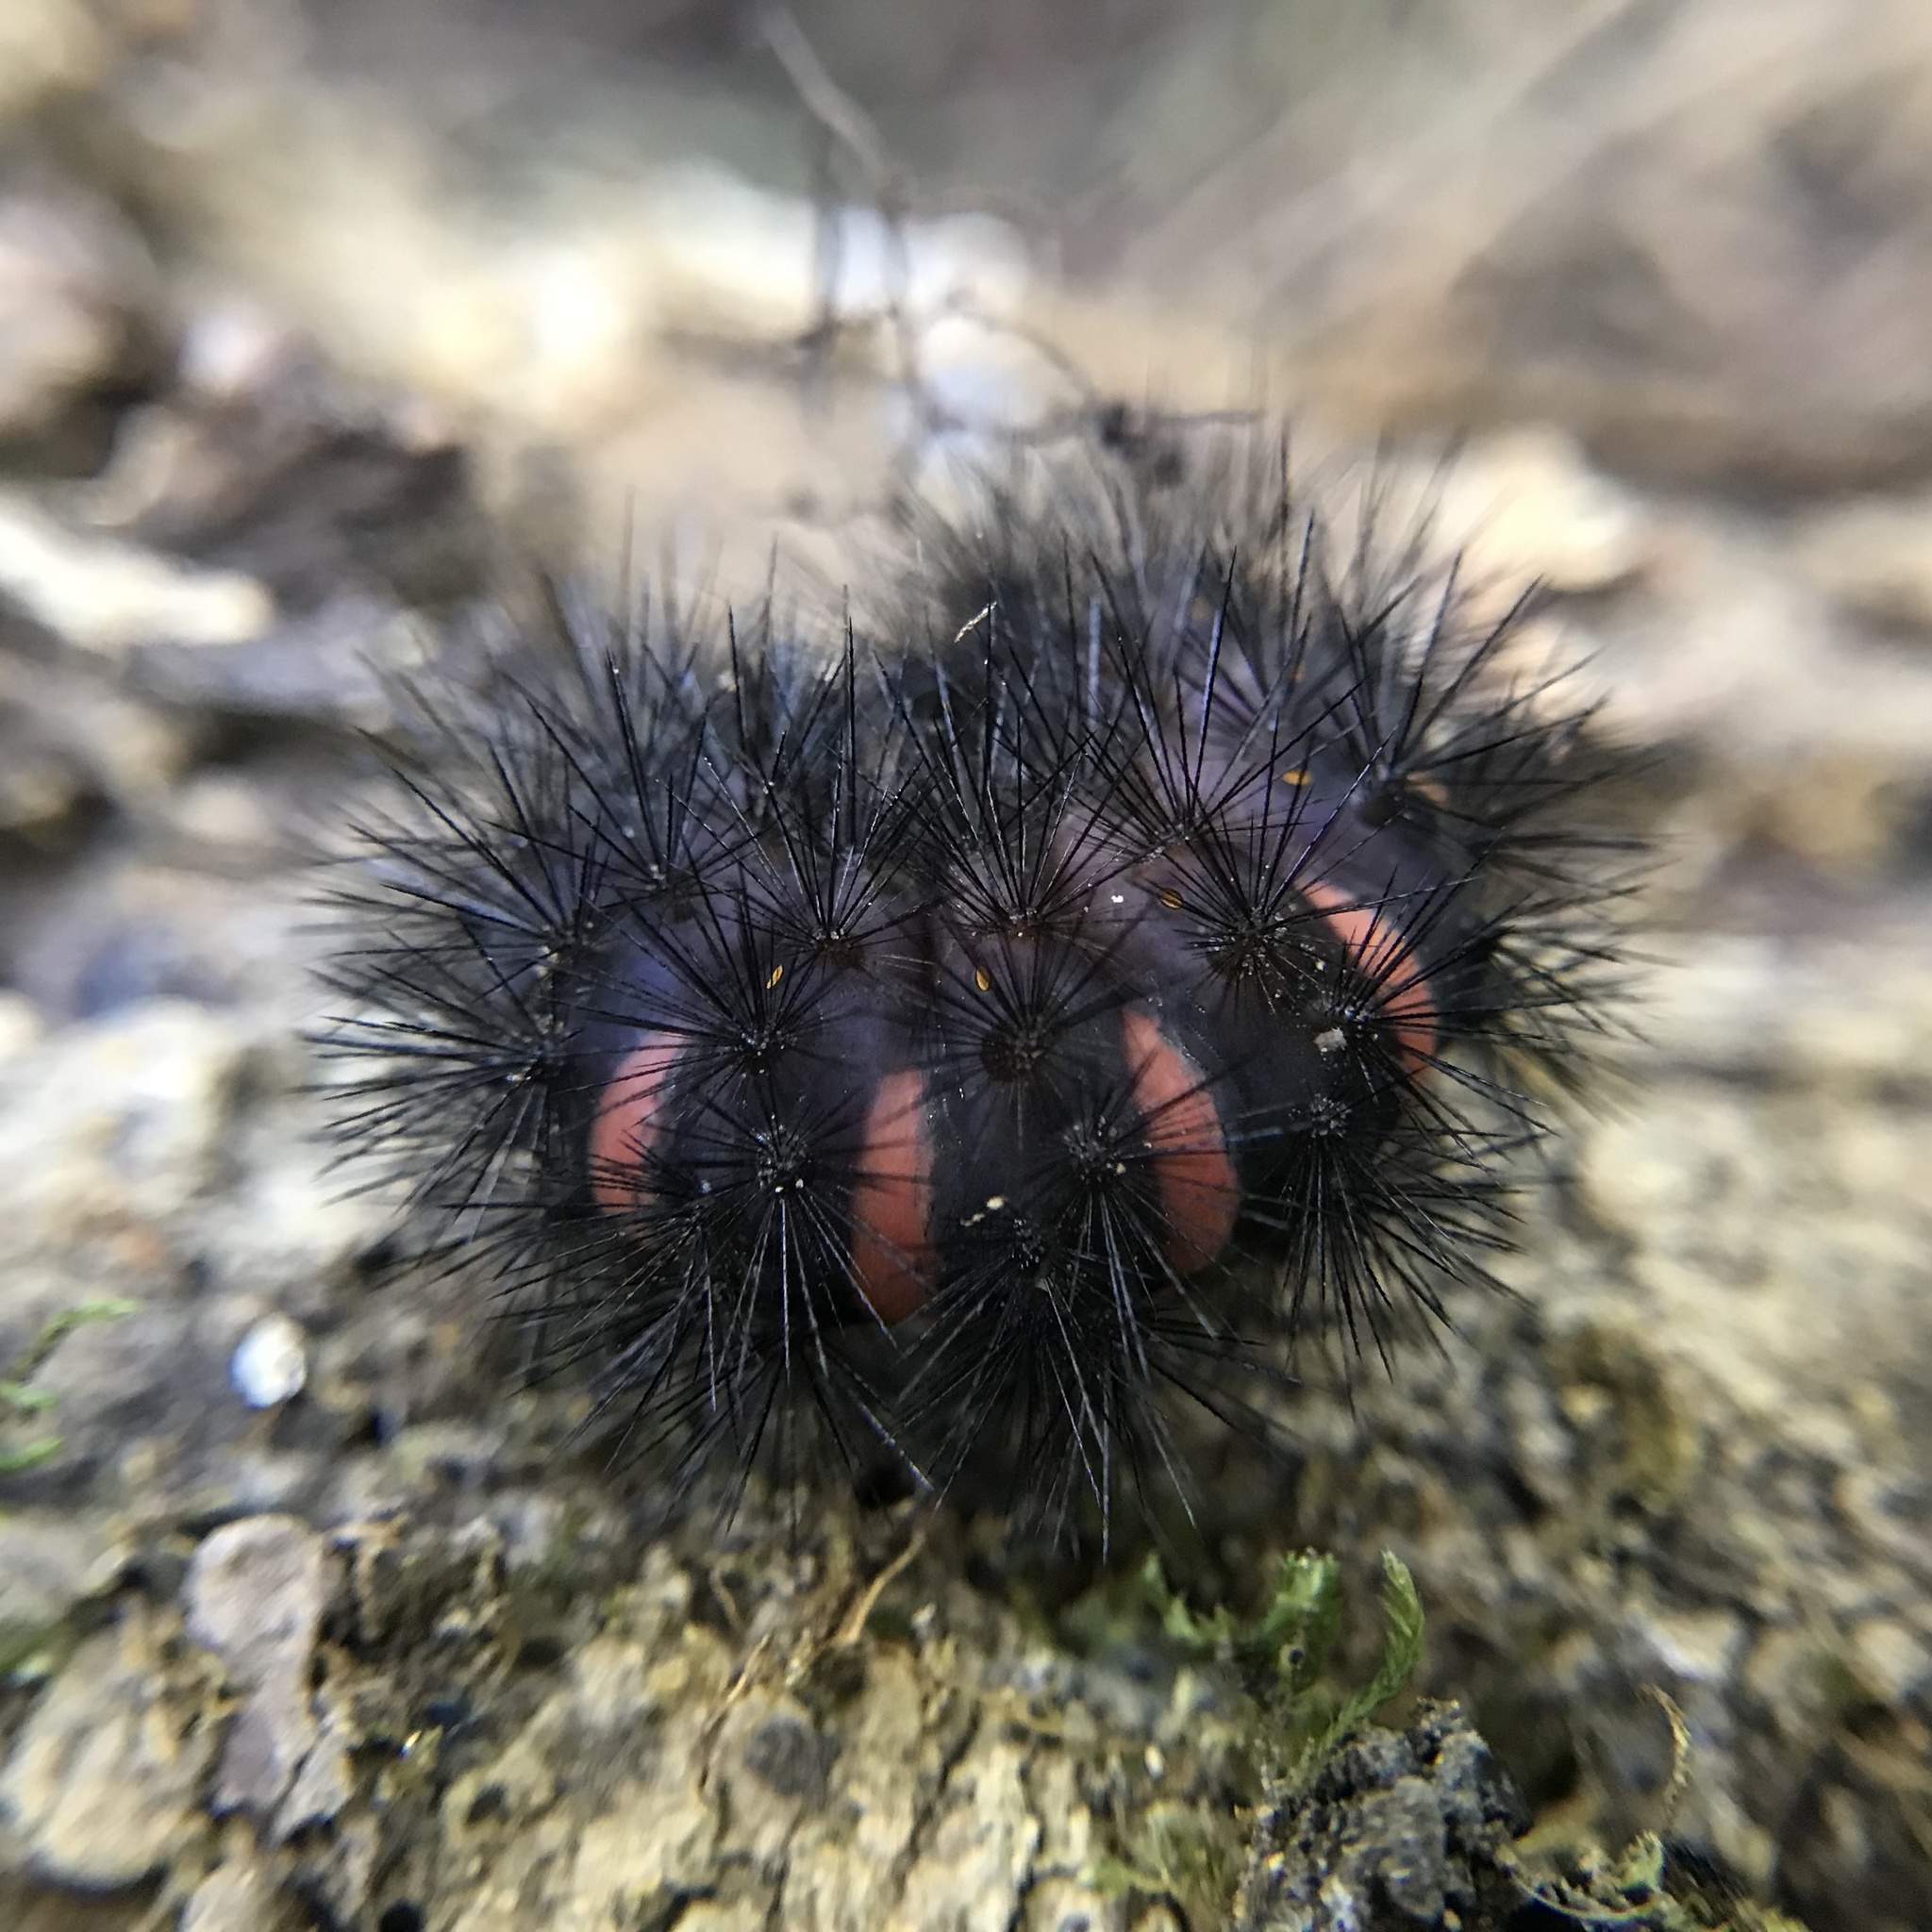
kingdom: Animalia
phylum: Arthropoda
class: Insecta
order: Lepidoptera
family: Erebidae
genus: Hypercompe
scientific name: Hypercompe scribonia
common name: Giant leopard moth
